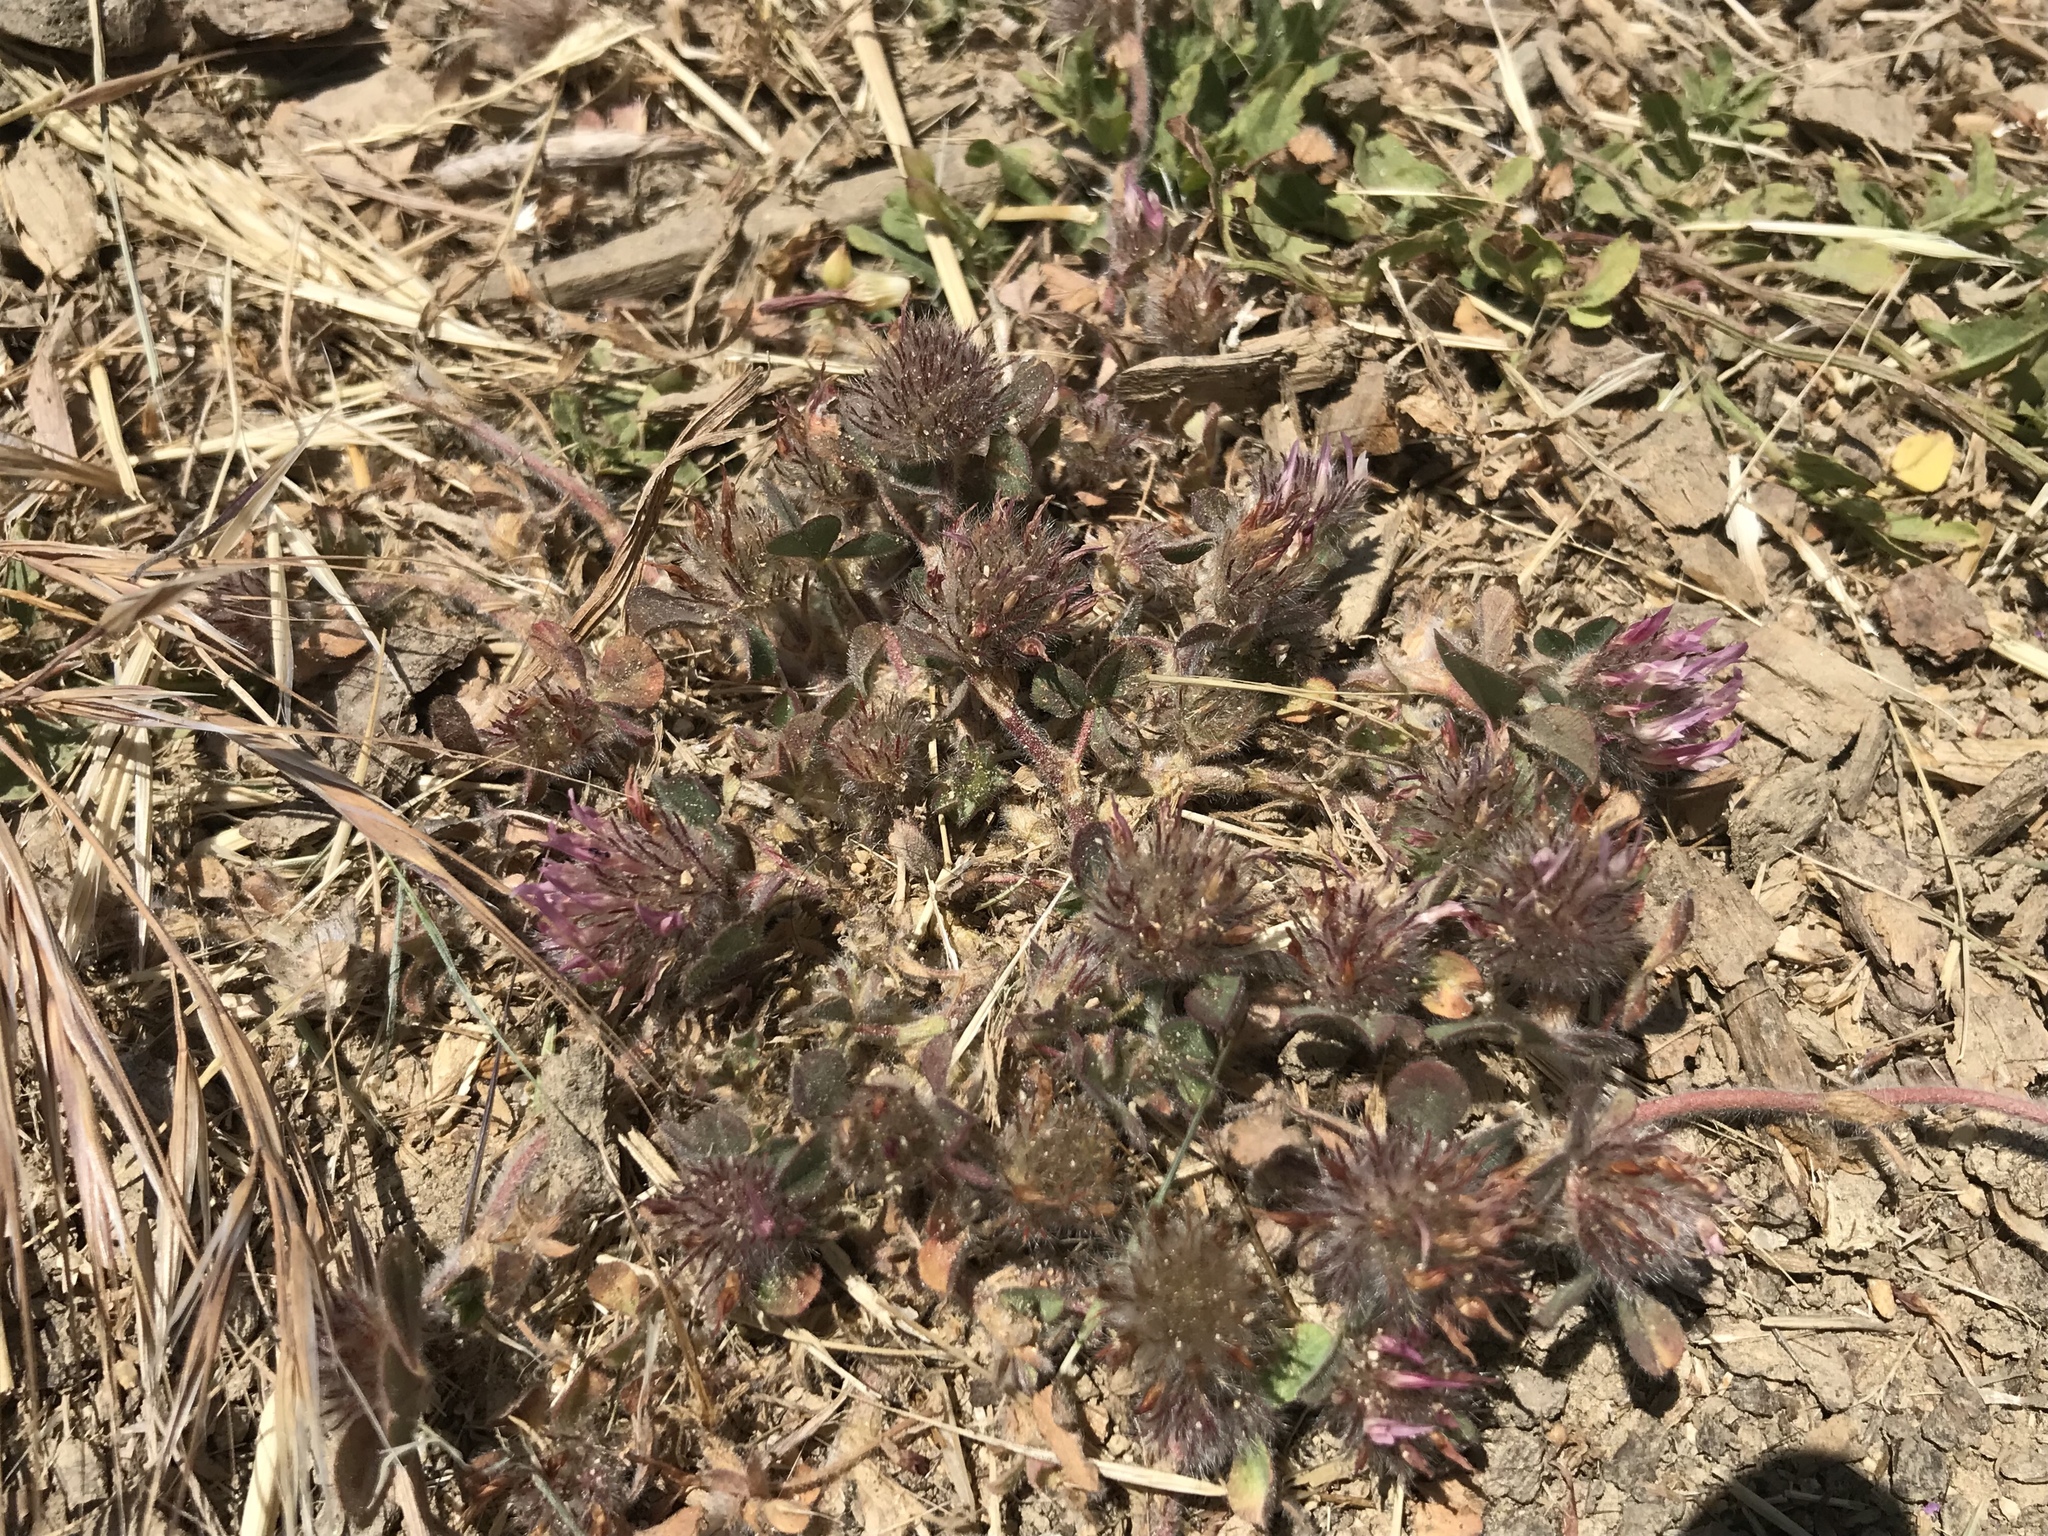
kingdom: Plantae
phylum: Tracheophyta
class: Magnoliopsida
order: Fabales
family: Fabaceae
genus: Trifolium
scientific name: Trifolium hirtum
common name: Rose clover
